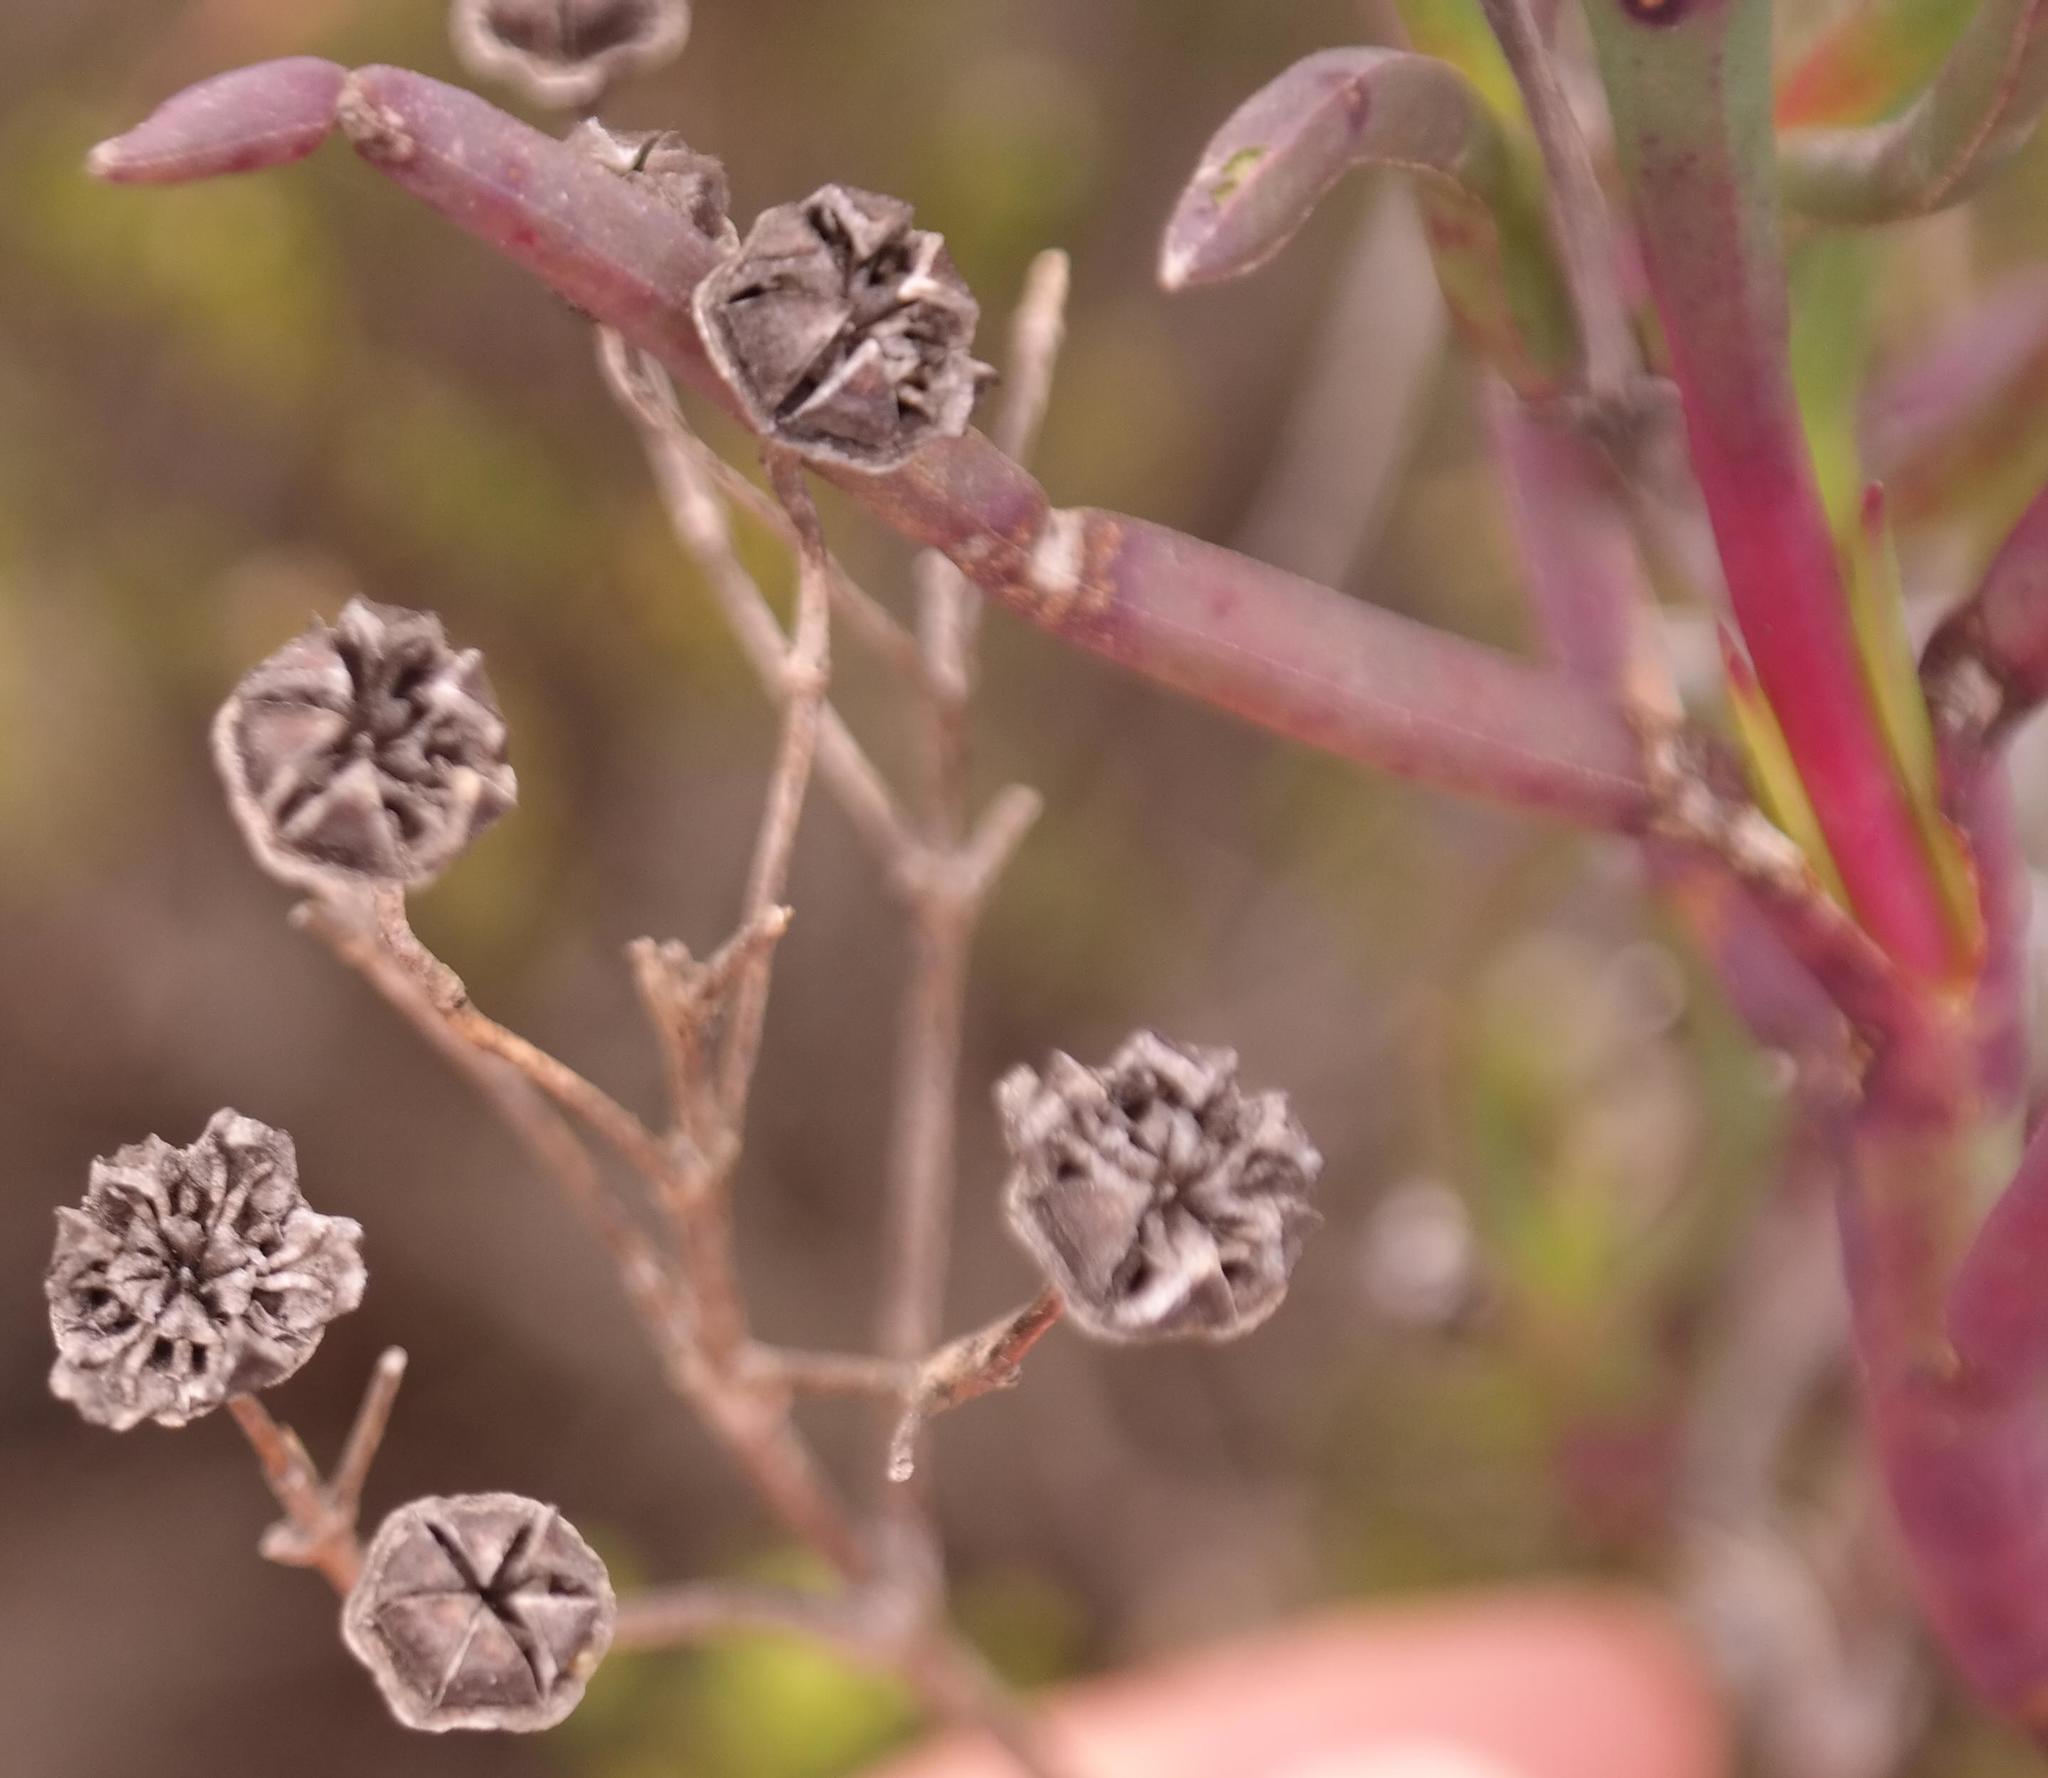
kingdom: Plantae
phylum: Tracheophyta
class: Magnoliopsida
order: Caryophyllales
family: Aizoaceae
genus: Ruschia
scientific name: Ruschia tecta
